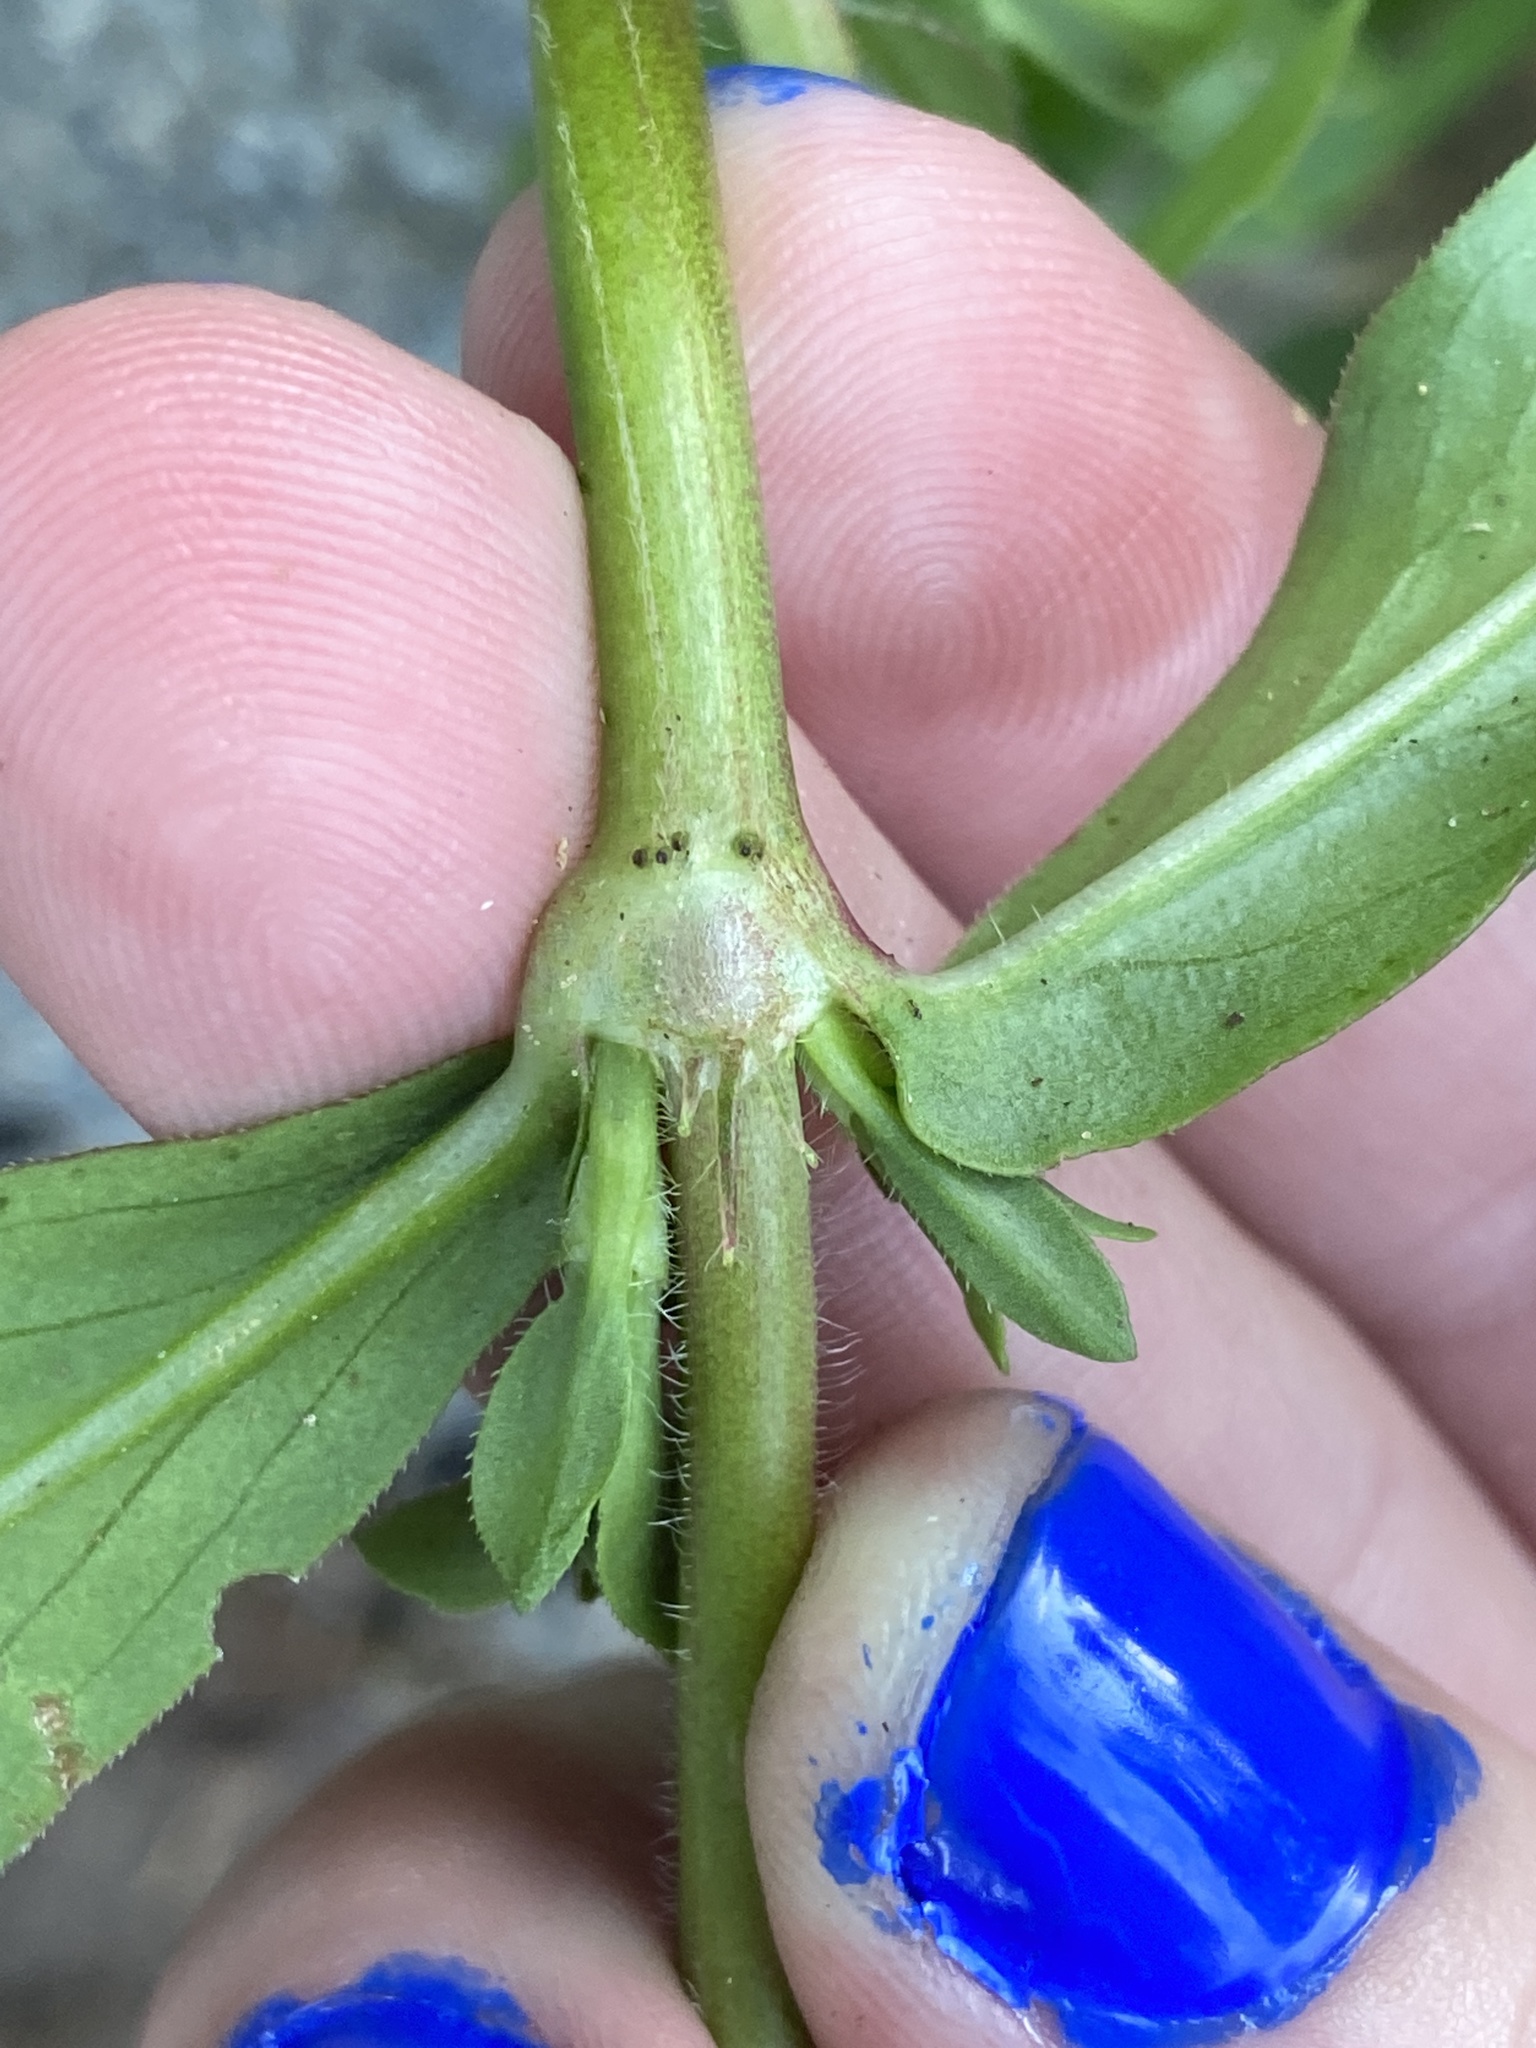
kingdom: Plantae
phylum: Tracheophyta
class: Magnoliopsida
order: Gentianales
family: Rubiaceae
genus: Diodia
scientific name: Diodia virginiana
